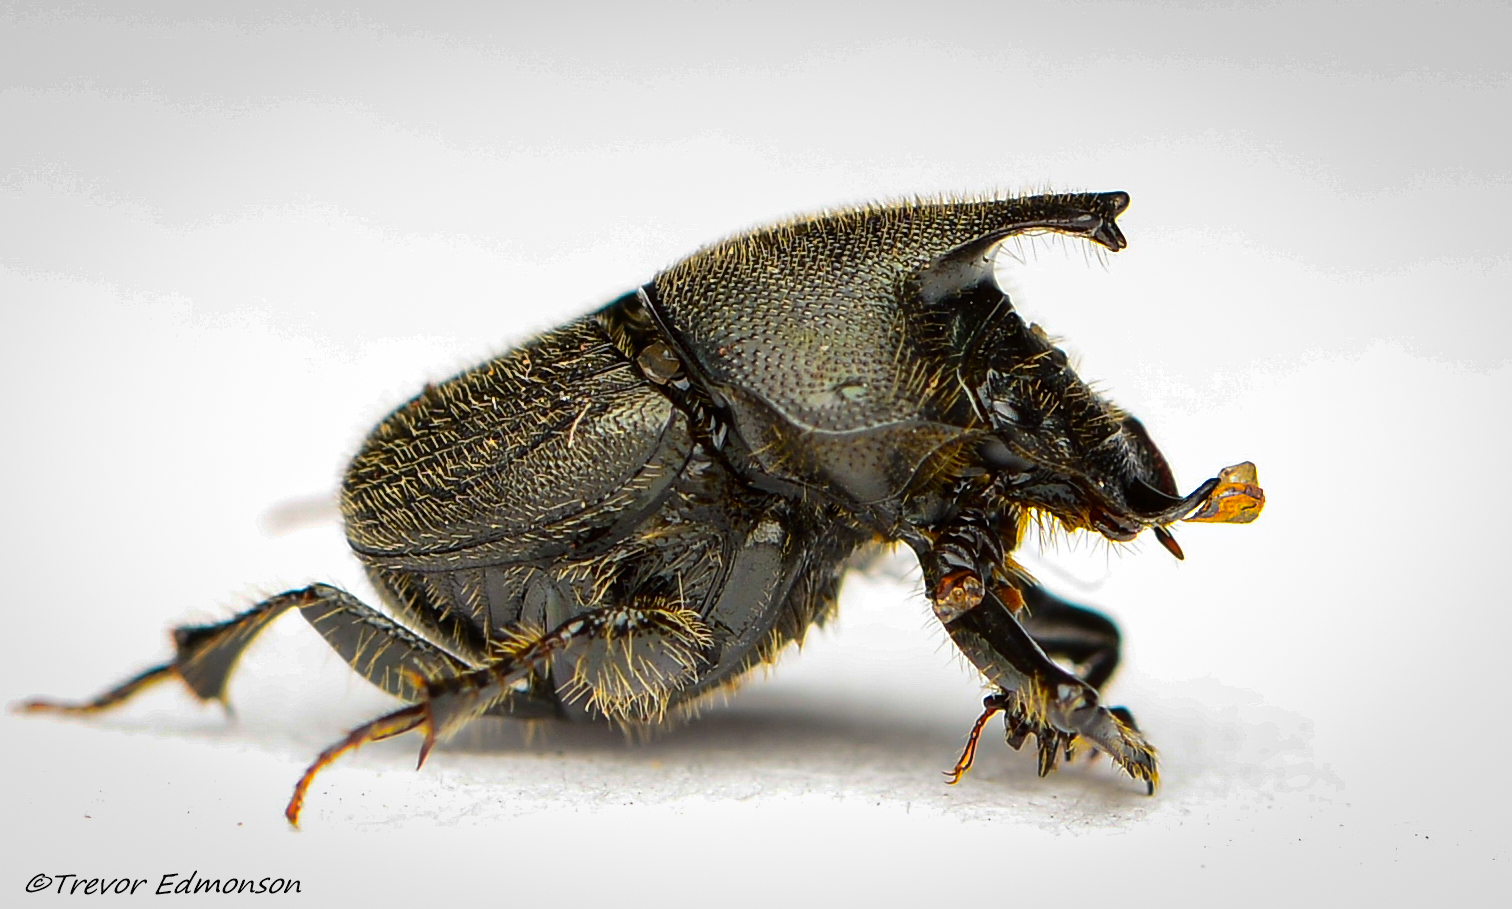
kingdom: Animalia
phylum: Arthropoda
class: Insecta
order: Coleoptera
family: Scarabaeidae
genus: Onthophagus
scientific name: Onthophagus hecate
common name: Scooped scarab
